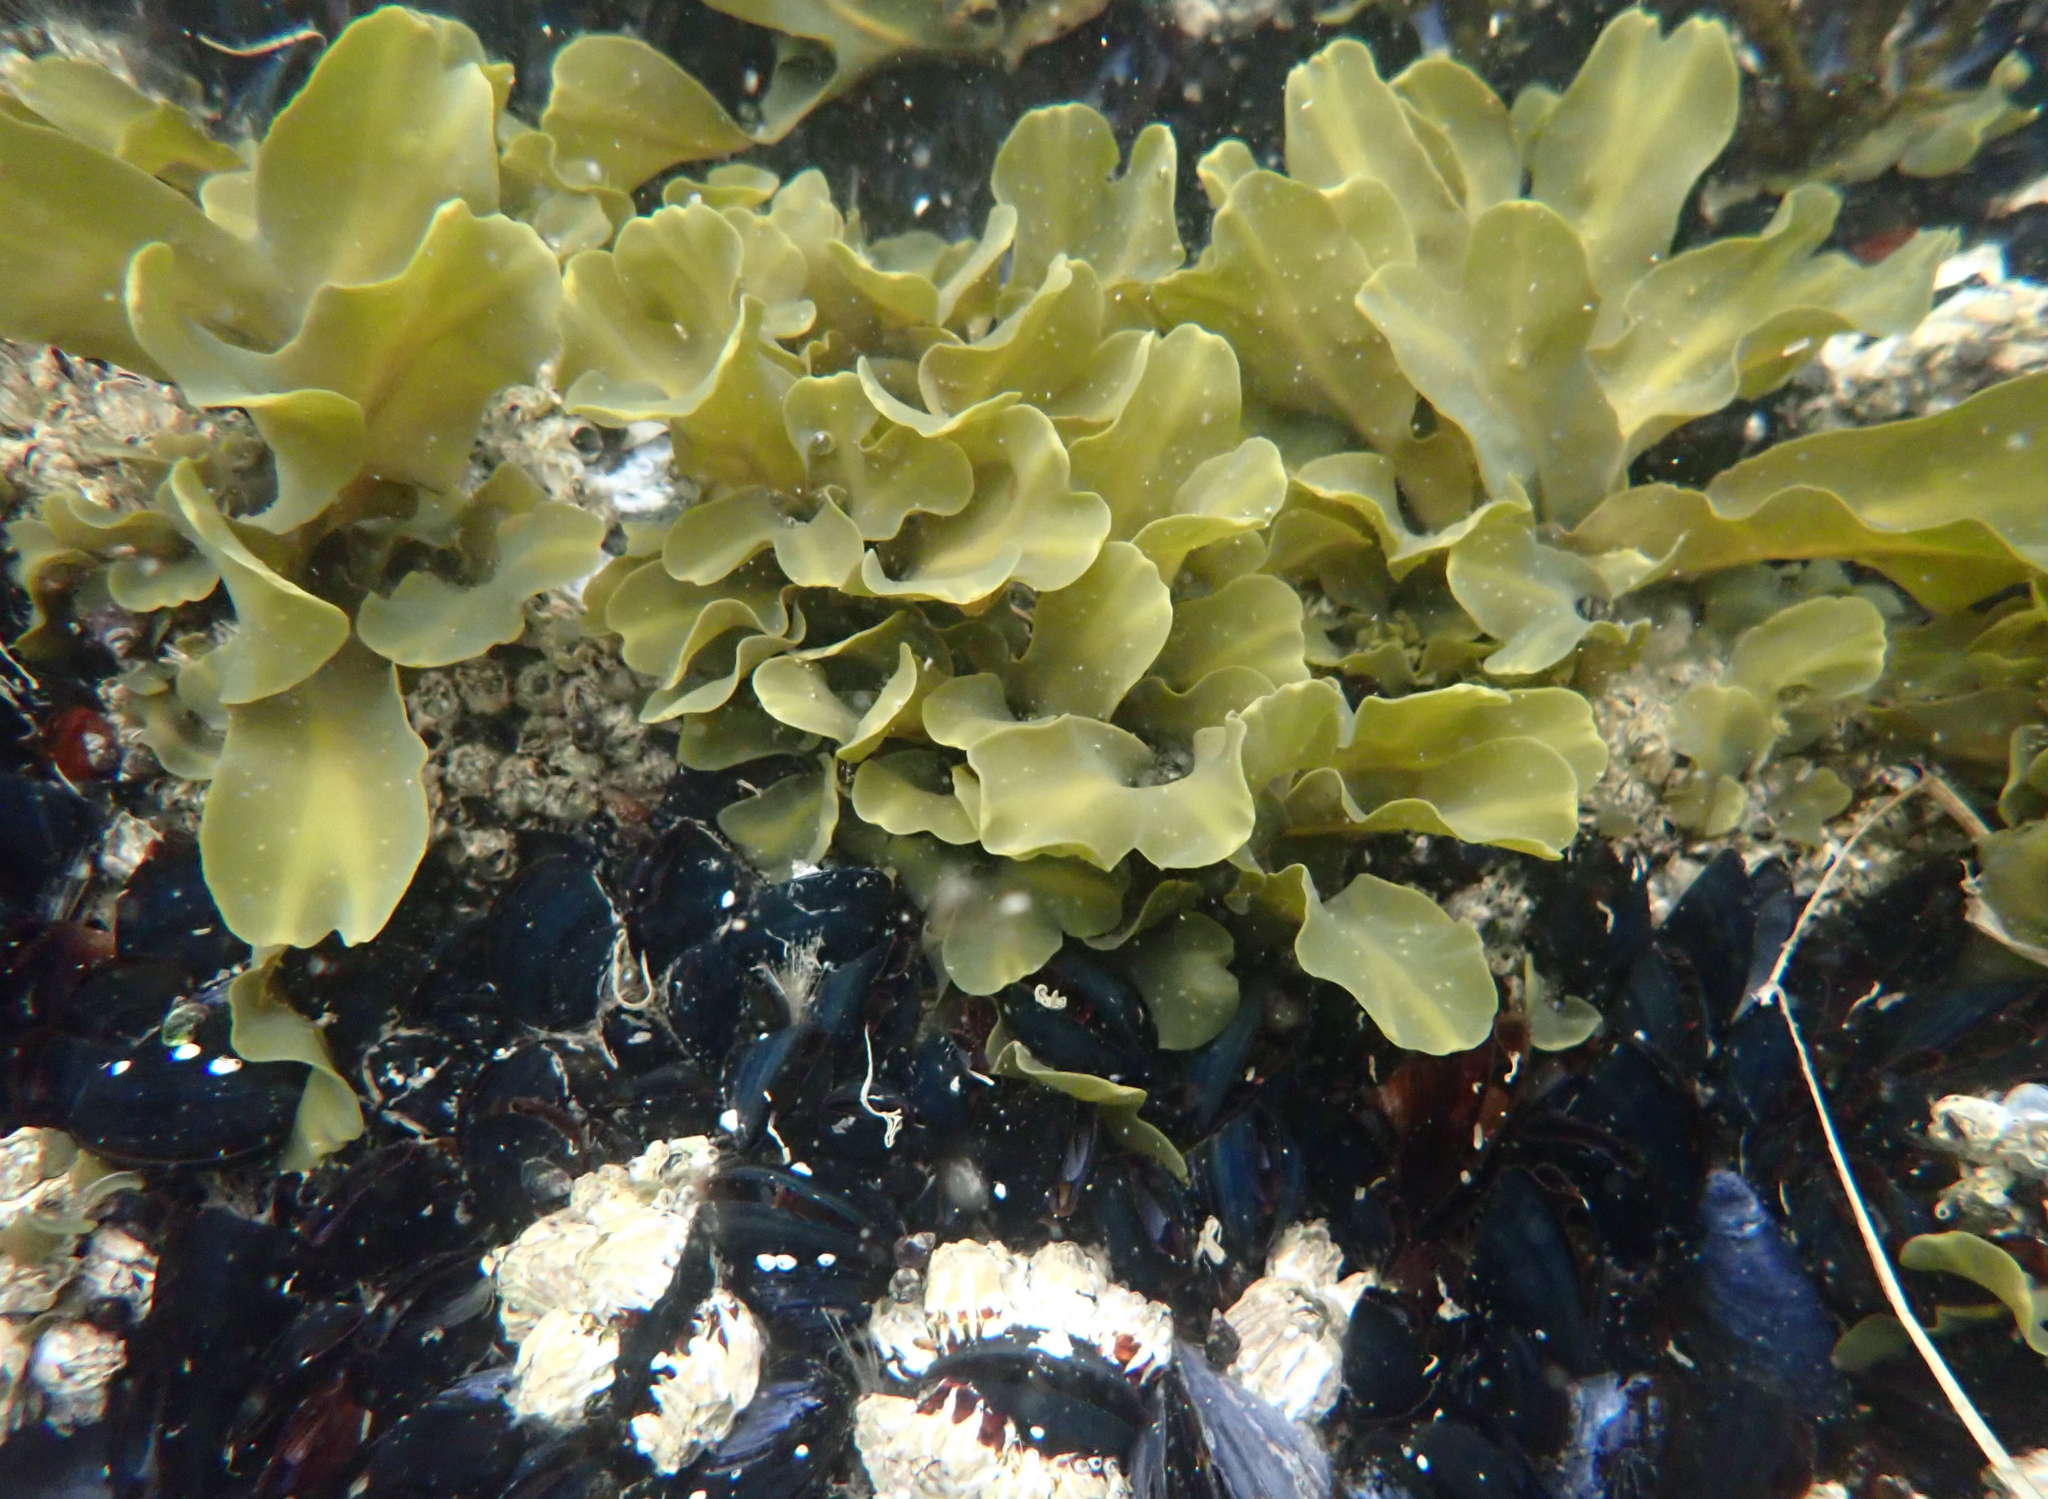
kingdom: Chromista
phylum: Ochrophyta
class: Phaeophyceae
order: Fucales
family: Fucaceae
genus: Fucus
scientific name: Fucus distichus
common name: Rockweed
